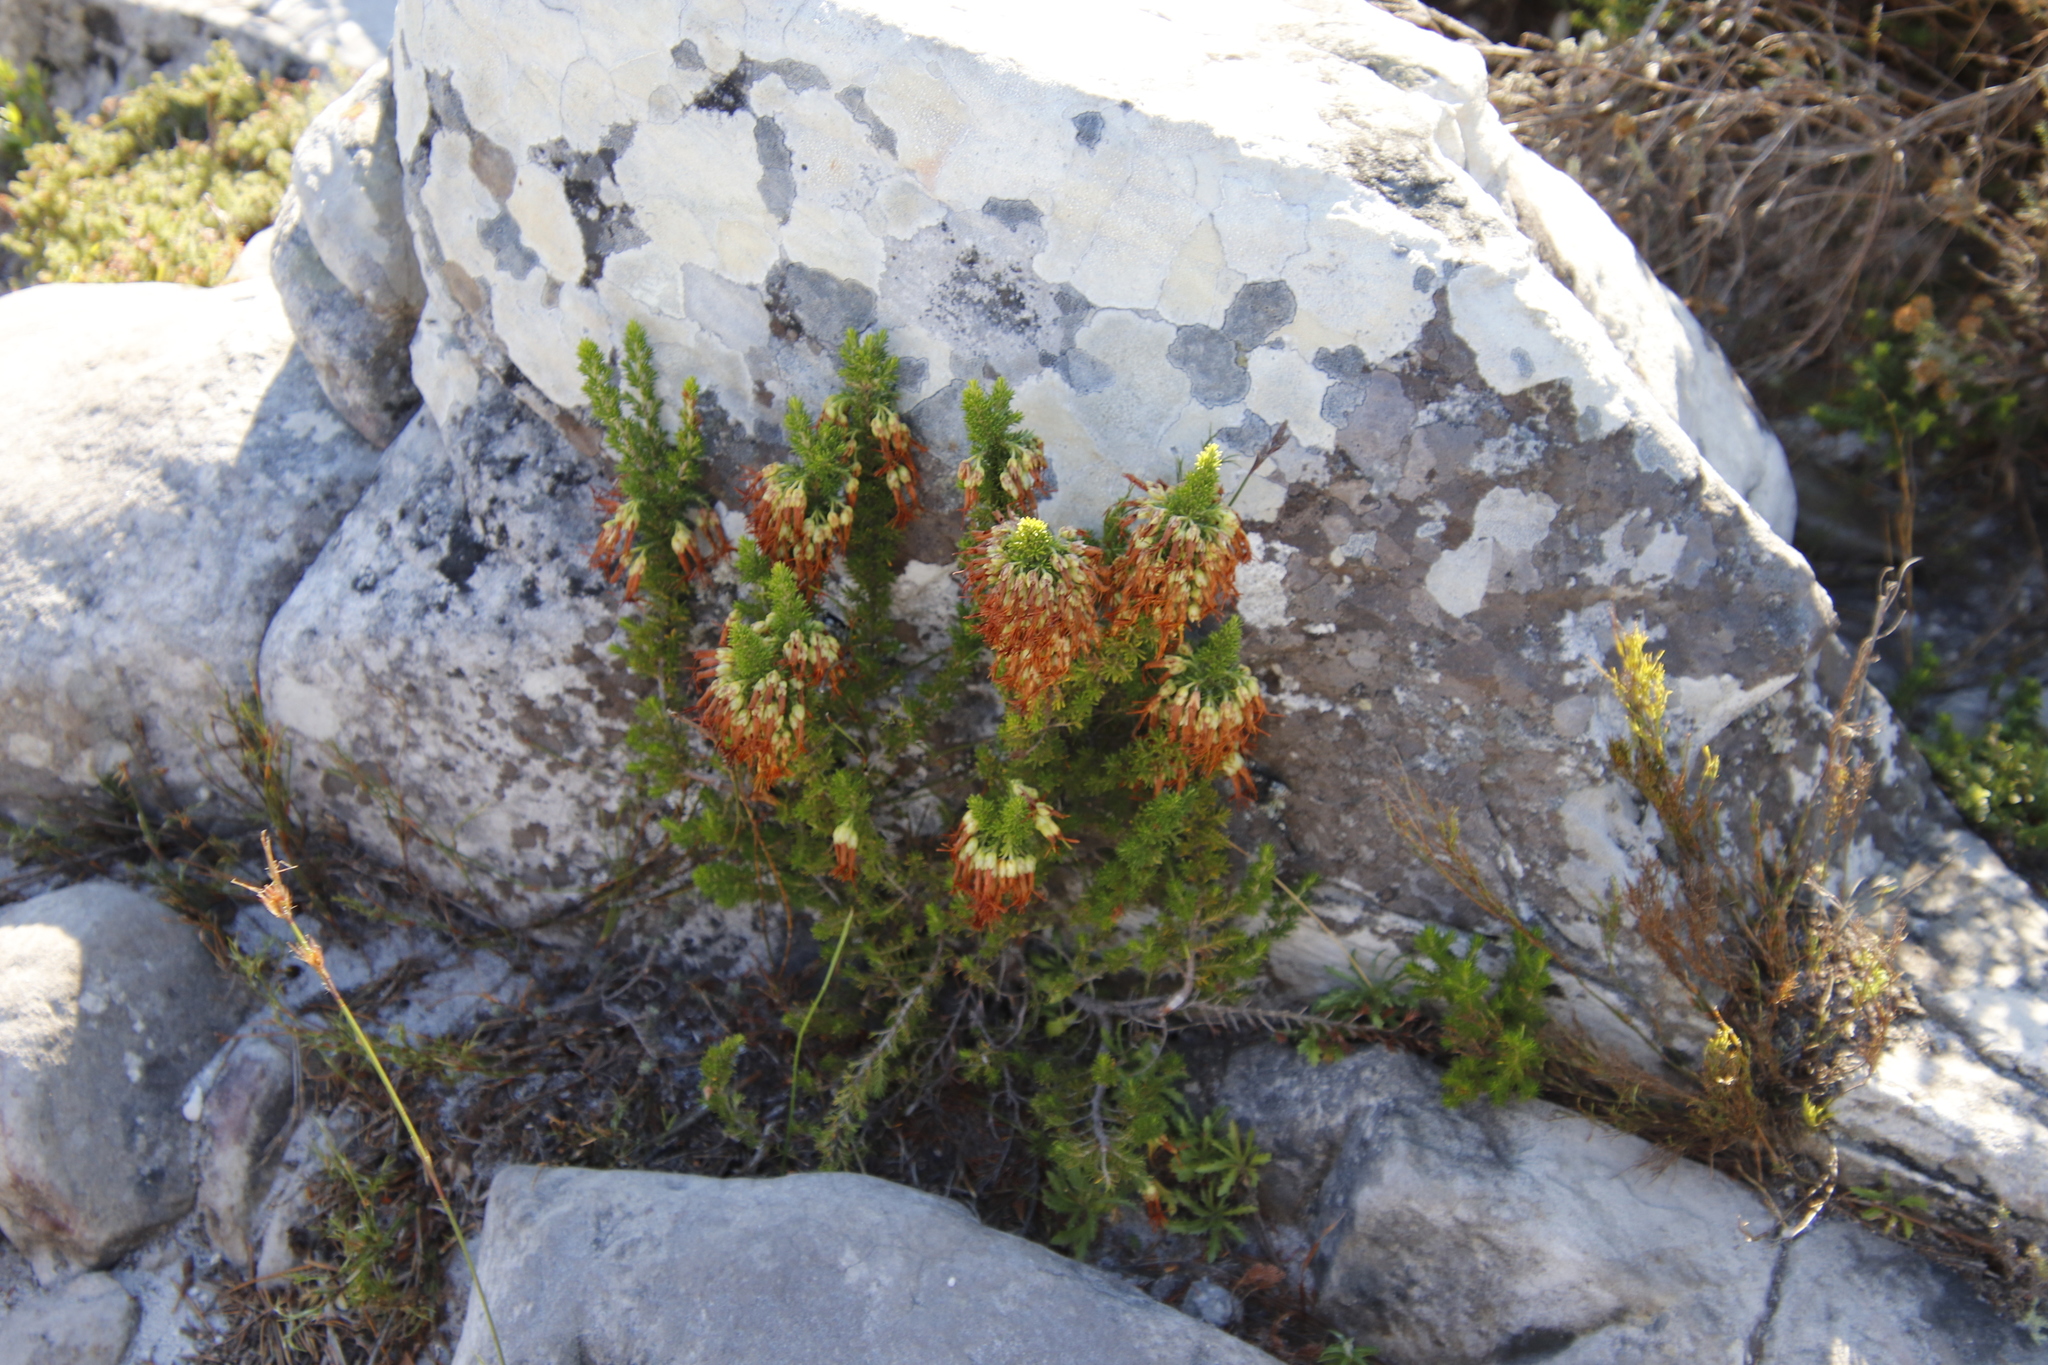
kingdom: Plantae
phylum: Tracheophyta
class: Magnoliopsida
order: Ericales
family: Ericaceae
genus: Erica
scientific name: Erica coccinea
